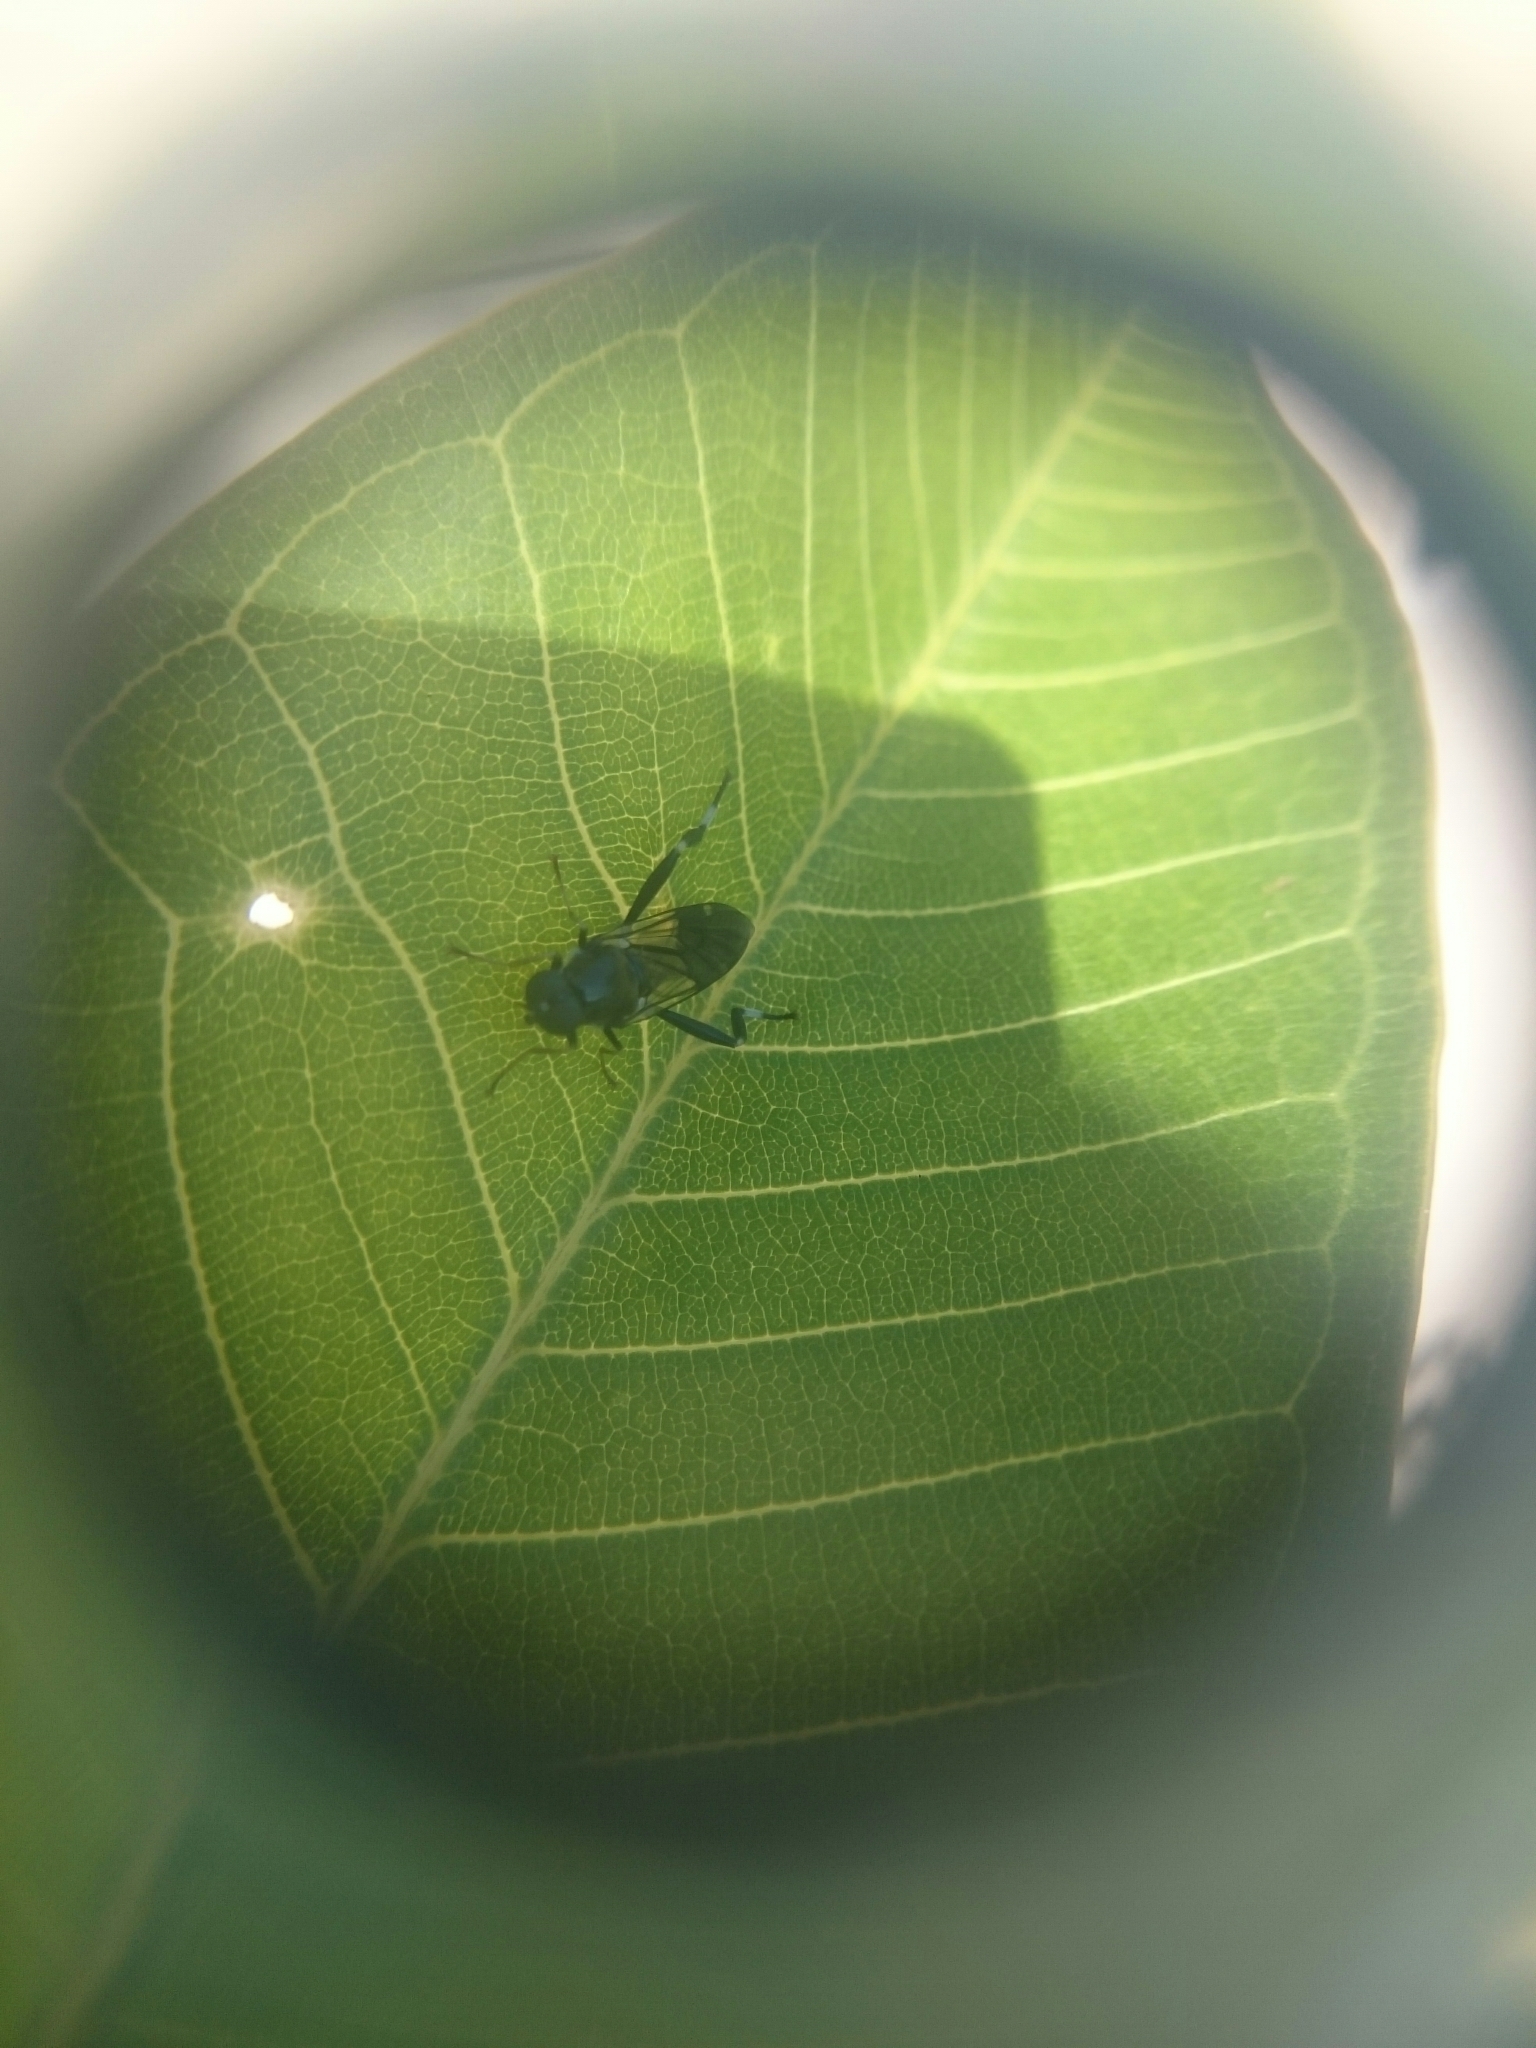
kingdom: Animalia
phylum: Arthropoda
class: Insecta
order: Diptera
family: Stratiomyidae
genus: Exaireta
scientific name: Exaireta spinigera
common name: Blue soldier fly
